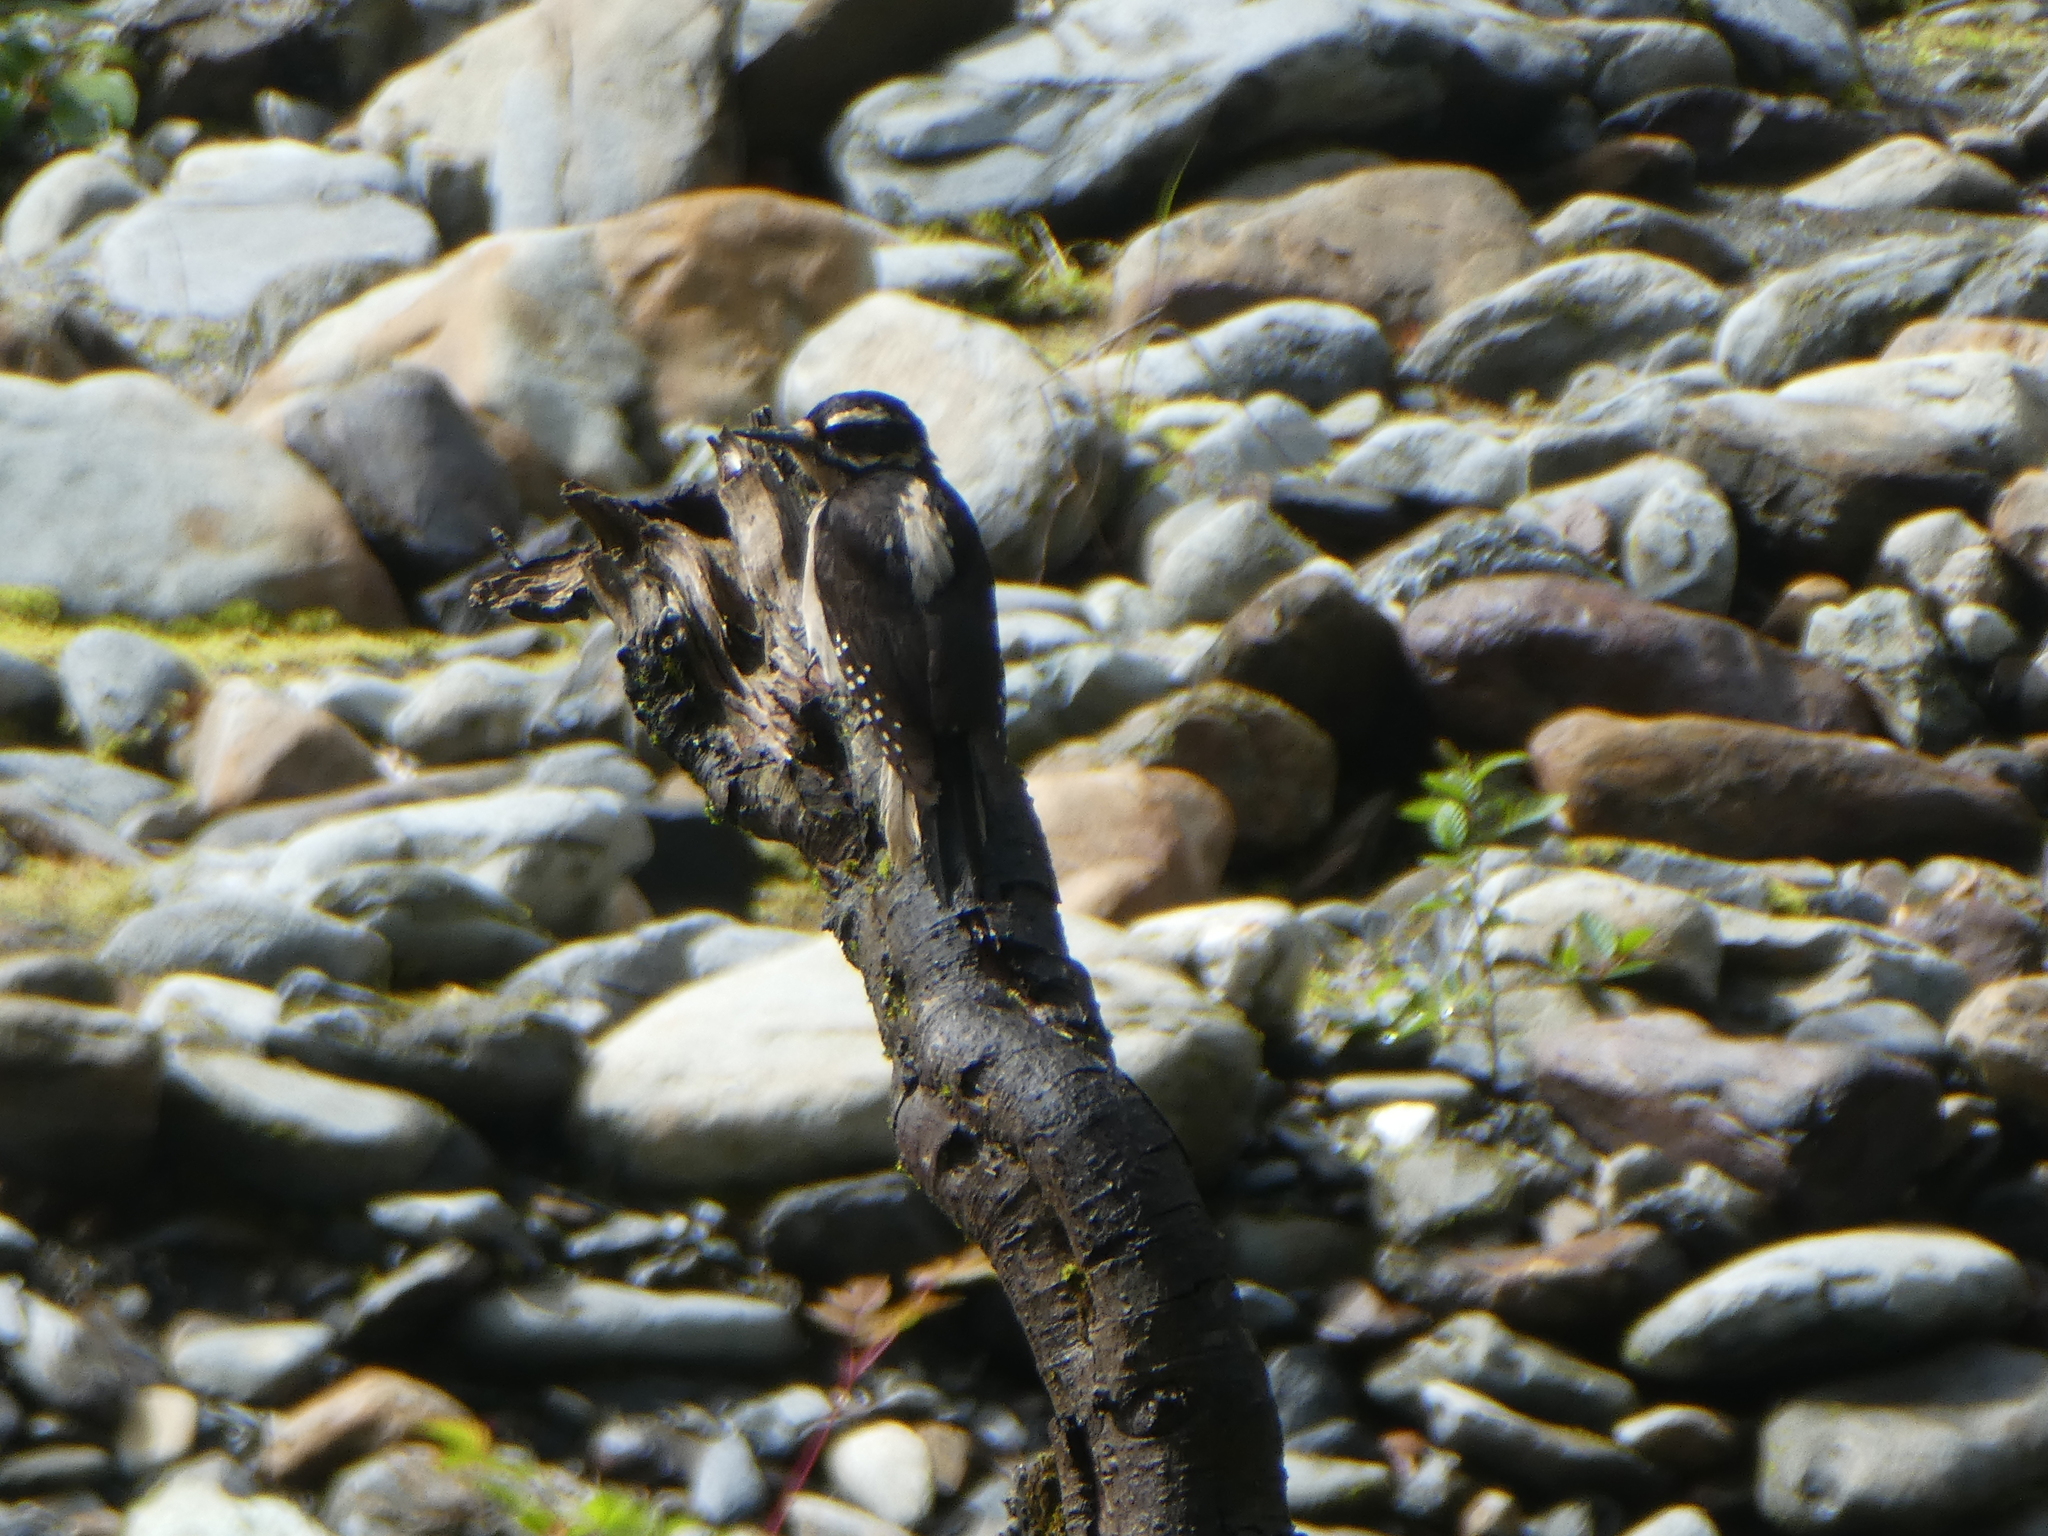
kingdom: Animalia
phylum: Chordata
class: Aves
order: Piciformes
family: Picidae
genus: Leuconotopicus
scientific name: Leuconotopicus villosus
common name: Hairy woodpecker
